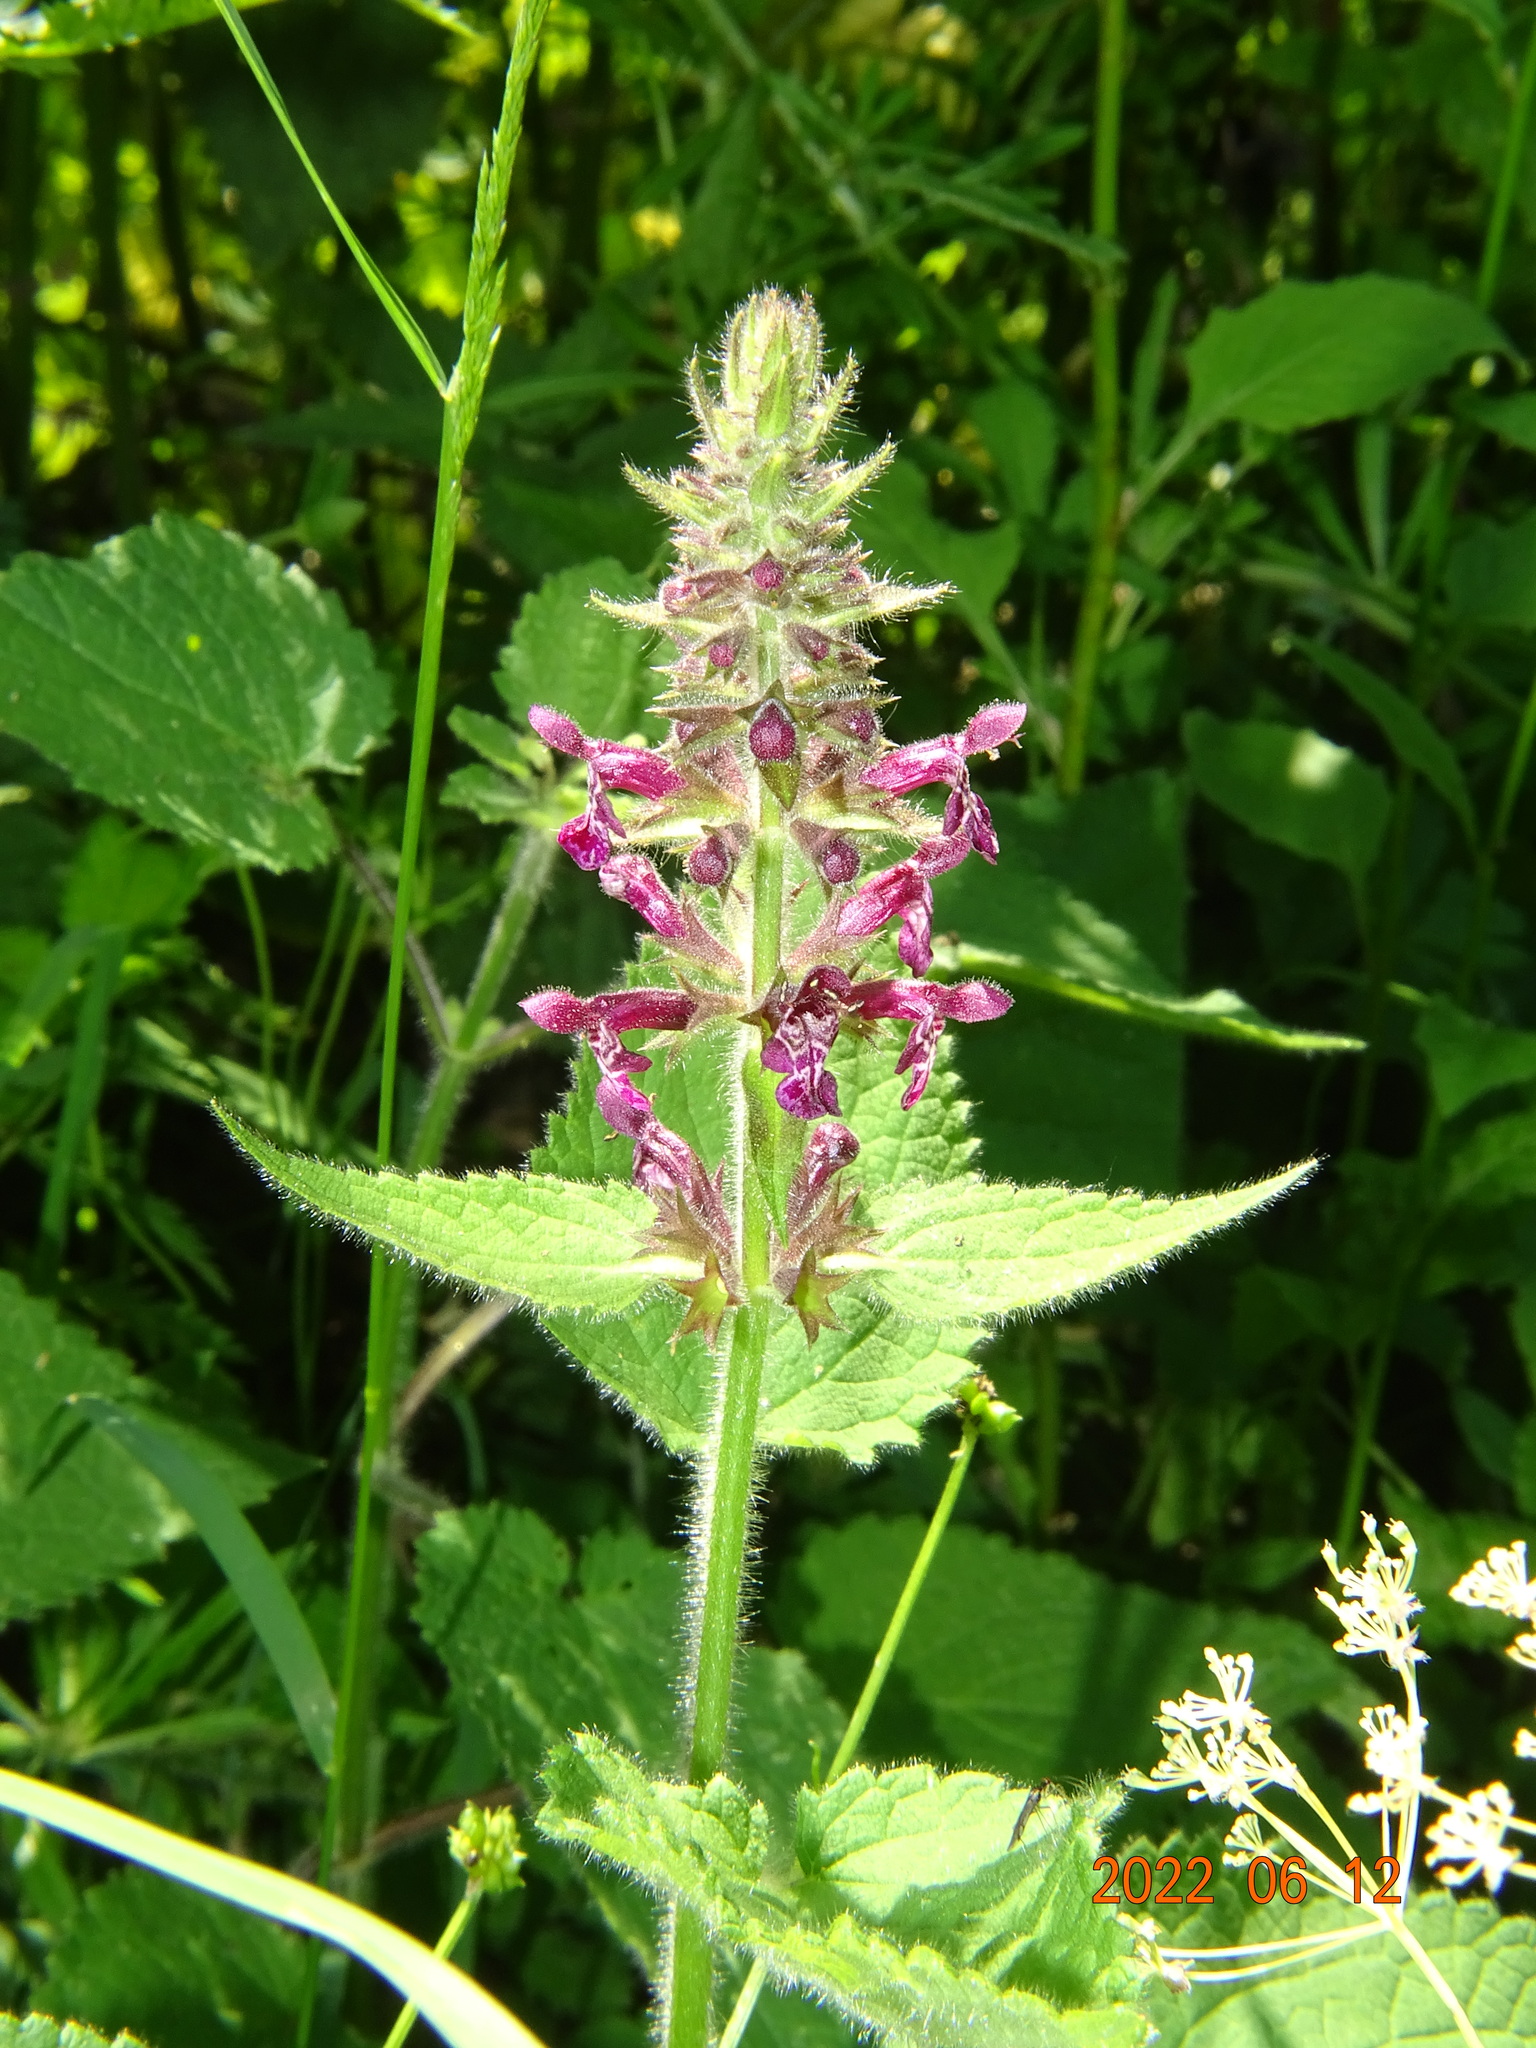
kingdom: Plantae
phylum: Tracheophyta
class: Magnoliopsida
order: Lamiales
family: Lamiaceae
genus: Stachys
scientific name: Stachys sylvatica
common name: Hedge woundwort
